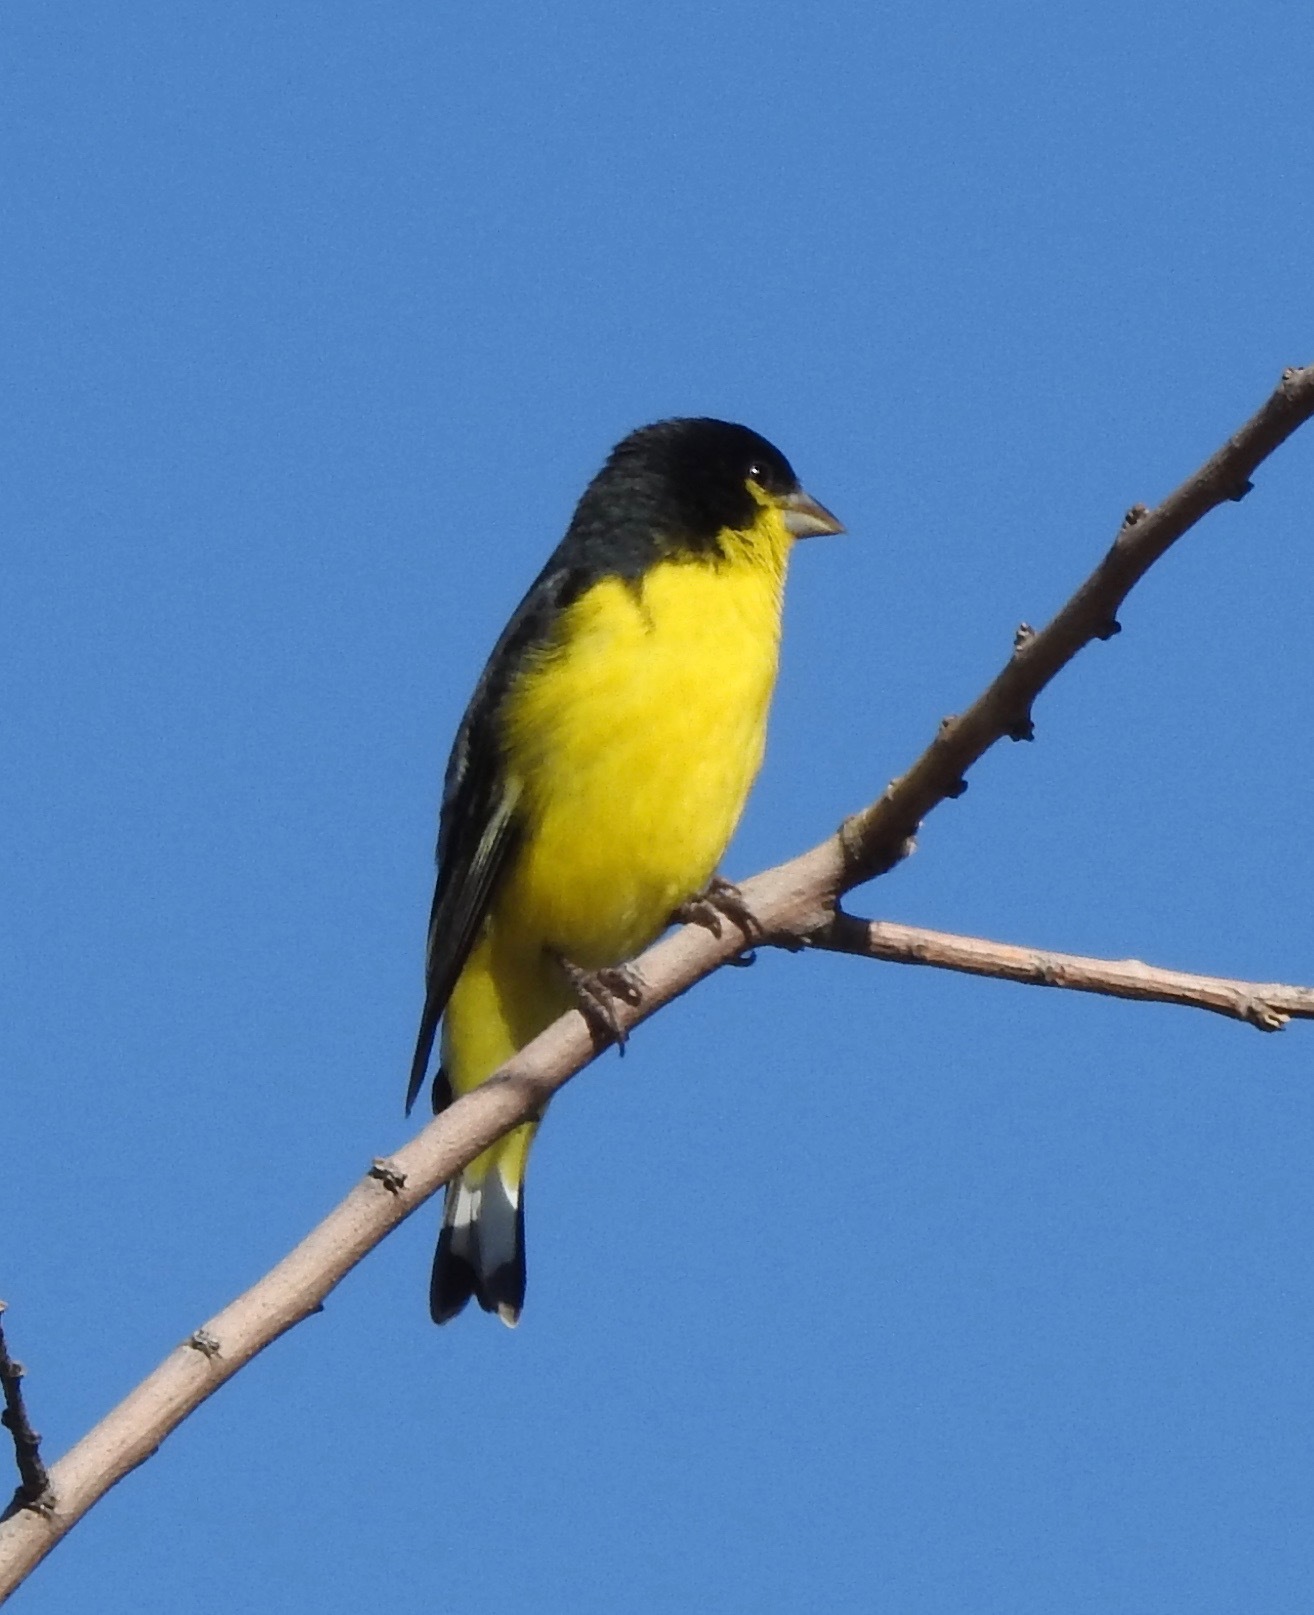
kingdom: Animalia
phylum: Chordata
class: Aves
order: Passeriformes
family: Fringillidae
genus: Spinus
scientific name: Spinus psaltria
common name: Lesser goldfinch
